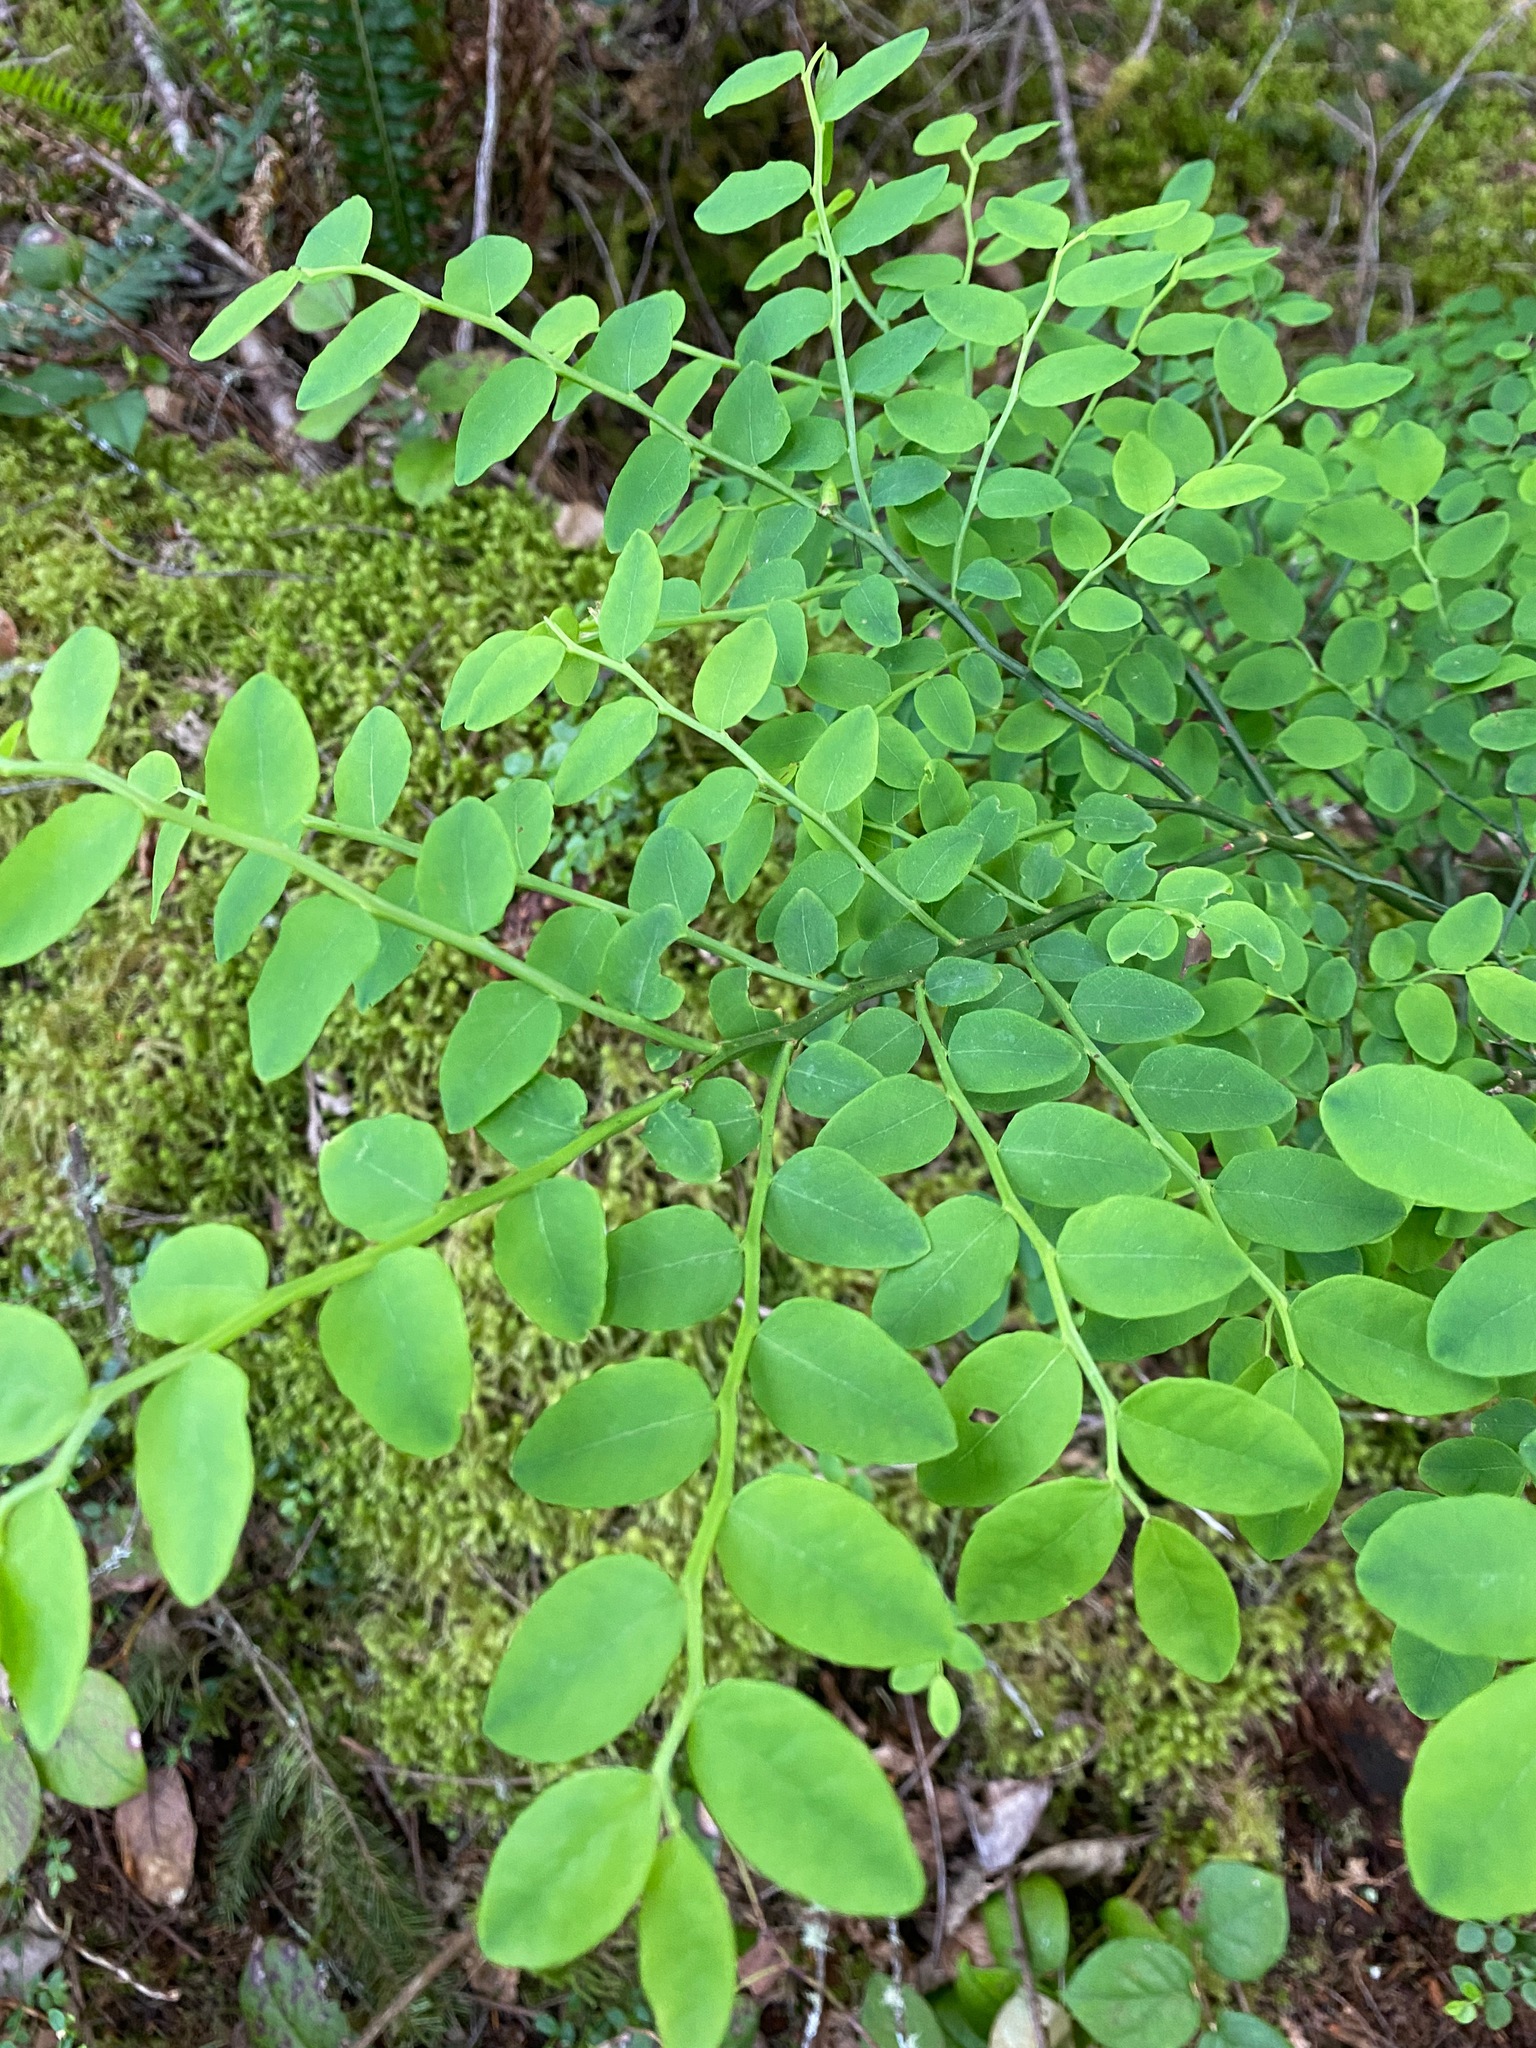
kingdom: Plantae
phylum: Tracheophyta
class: Magnoliopsida
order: Ericales
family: Ericaceae
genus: Vaccinium
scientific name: Vaccinium parvifolium
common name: Red-huckleberry
